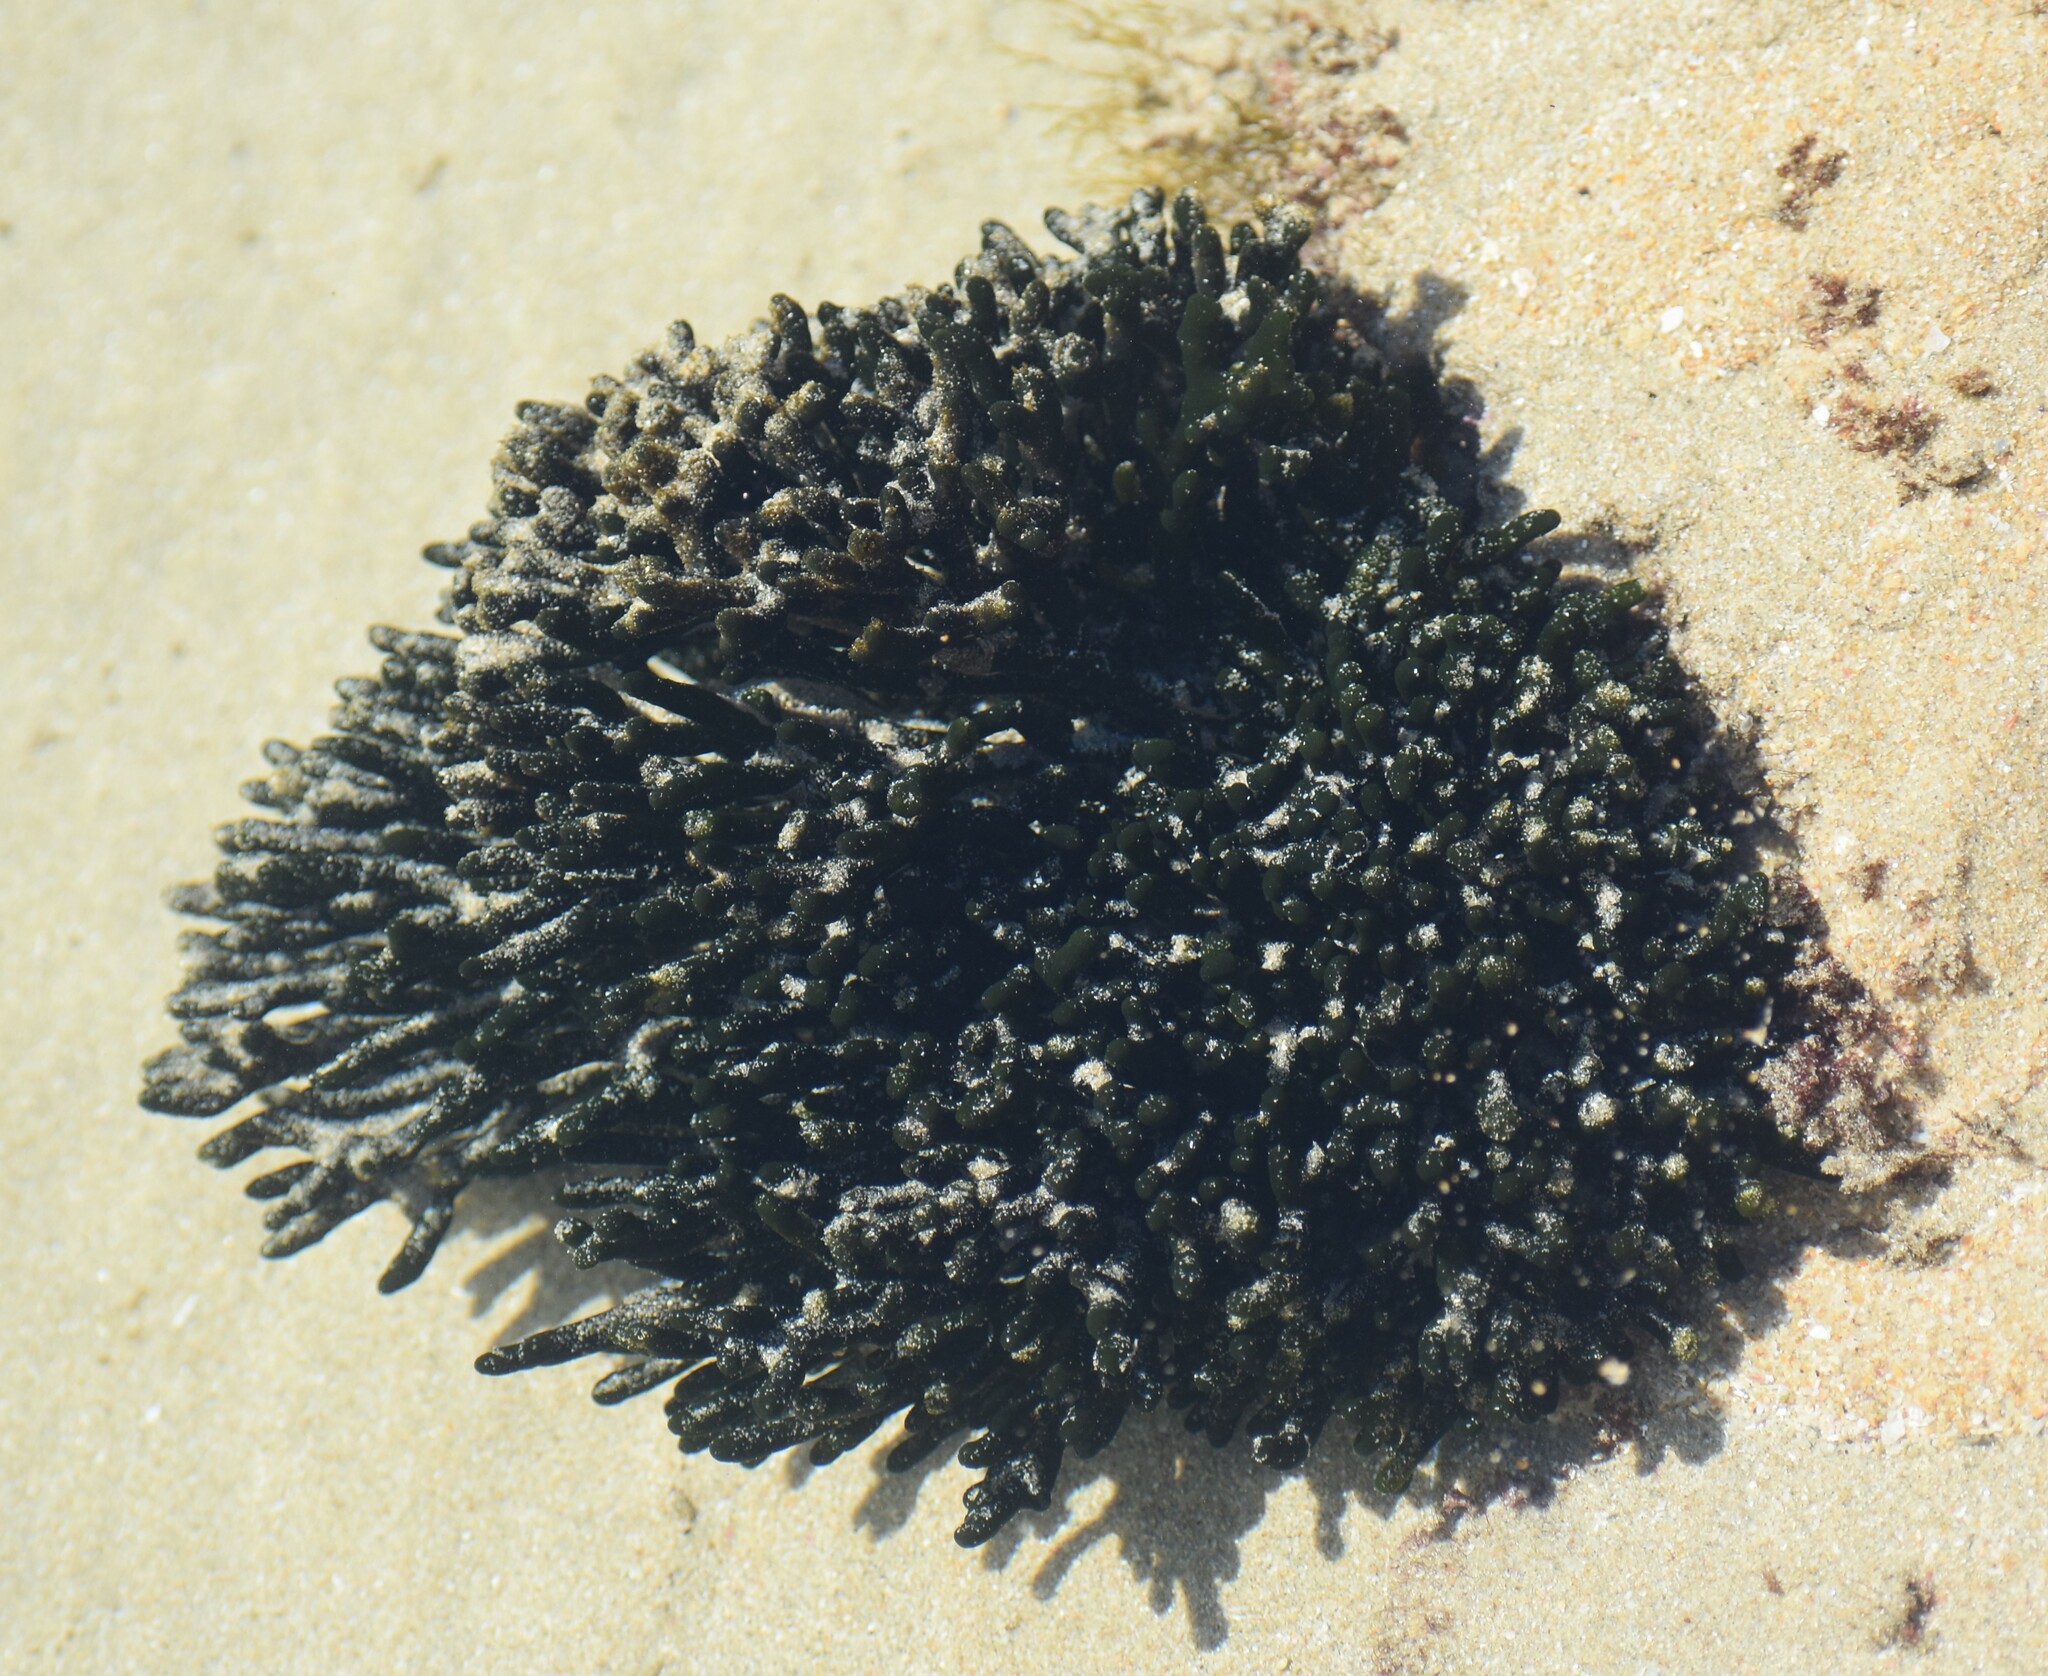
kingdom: Plantae
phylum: Chlorophyta
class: Ulvophyceae
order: Bryopsidales
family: Codiaceae
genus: Codium
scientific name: Codium fragile
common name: Dead man's fingers
